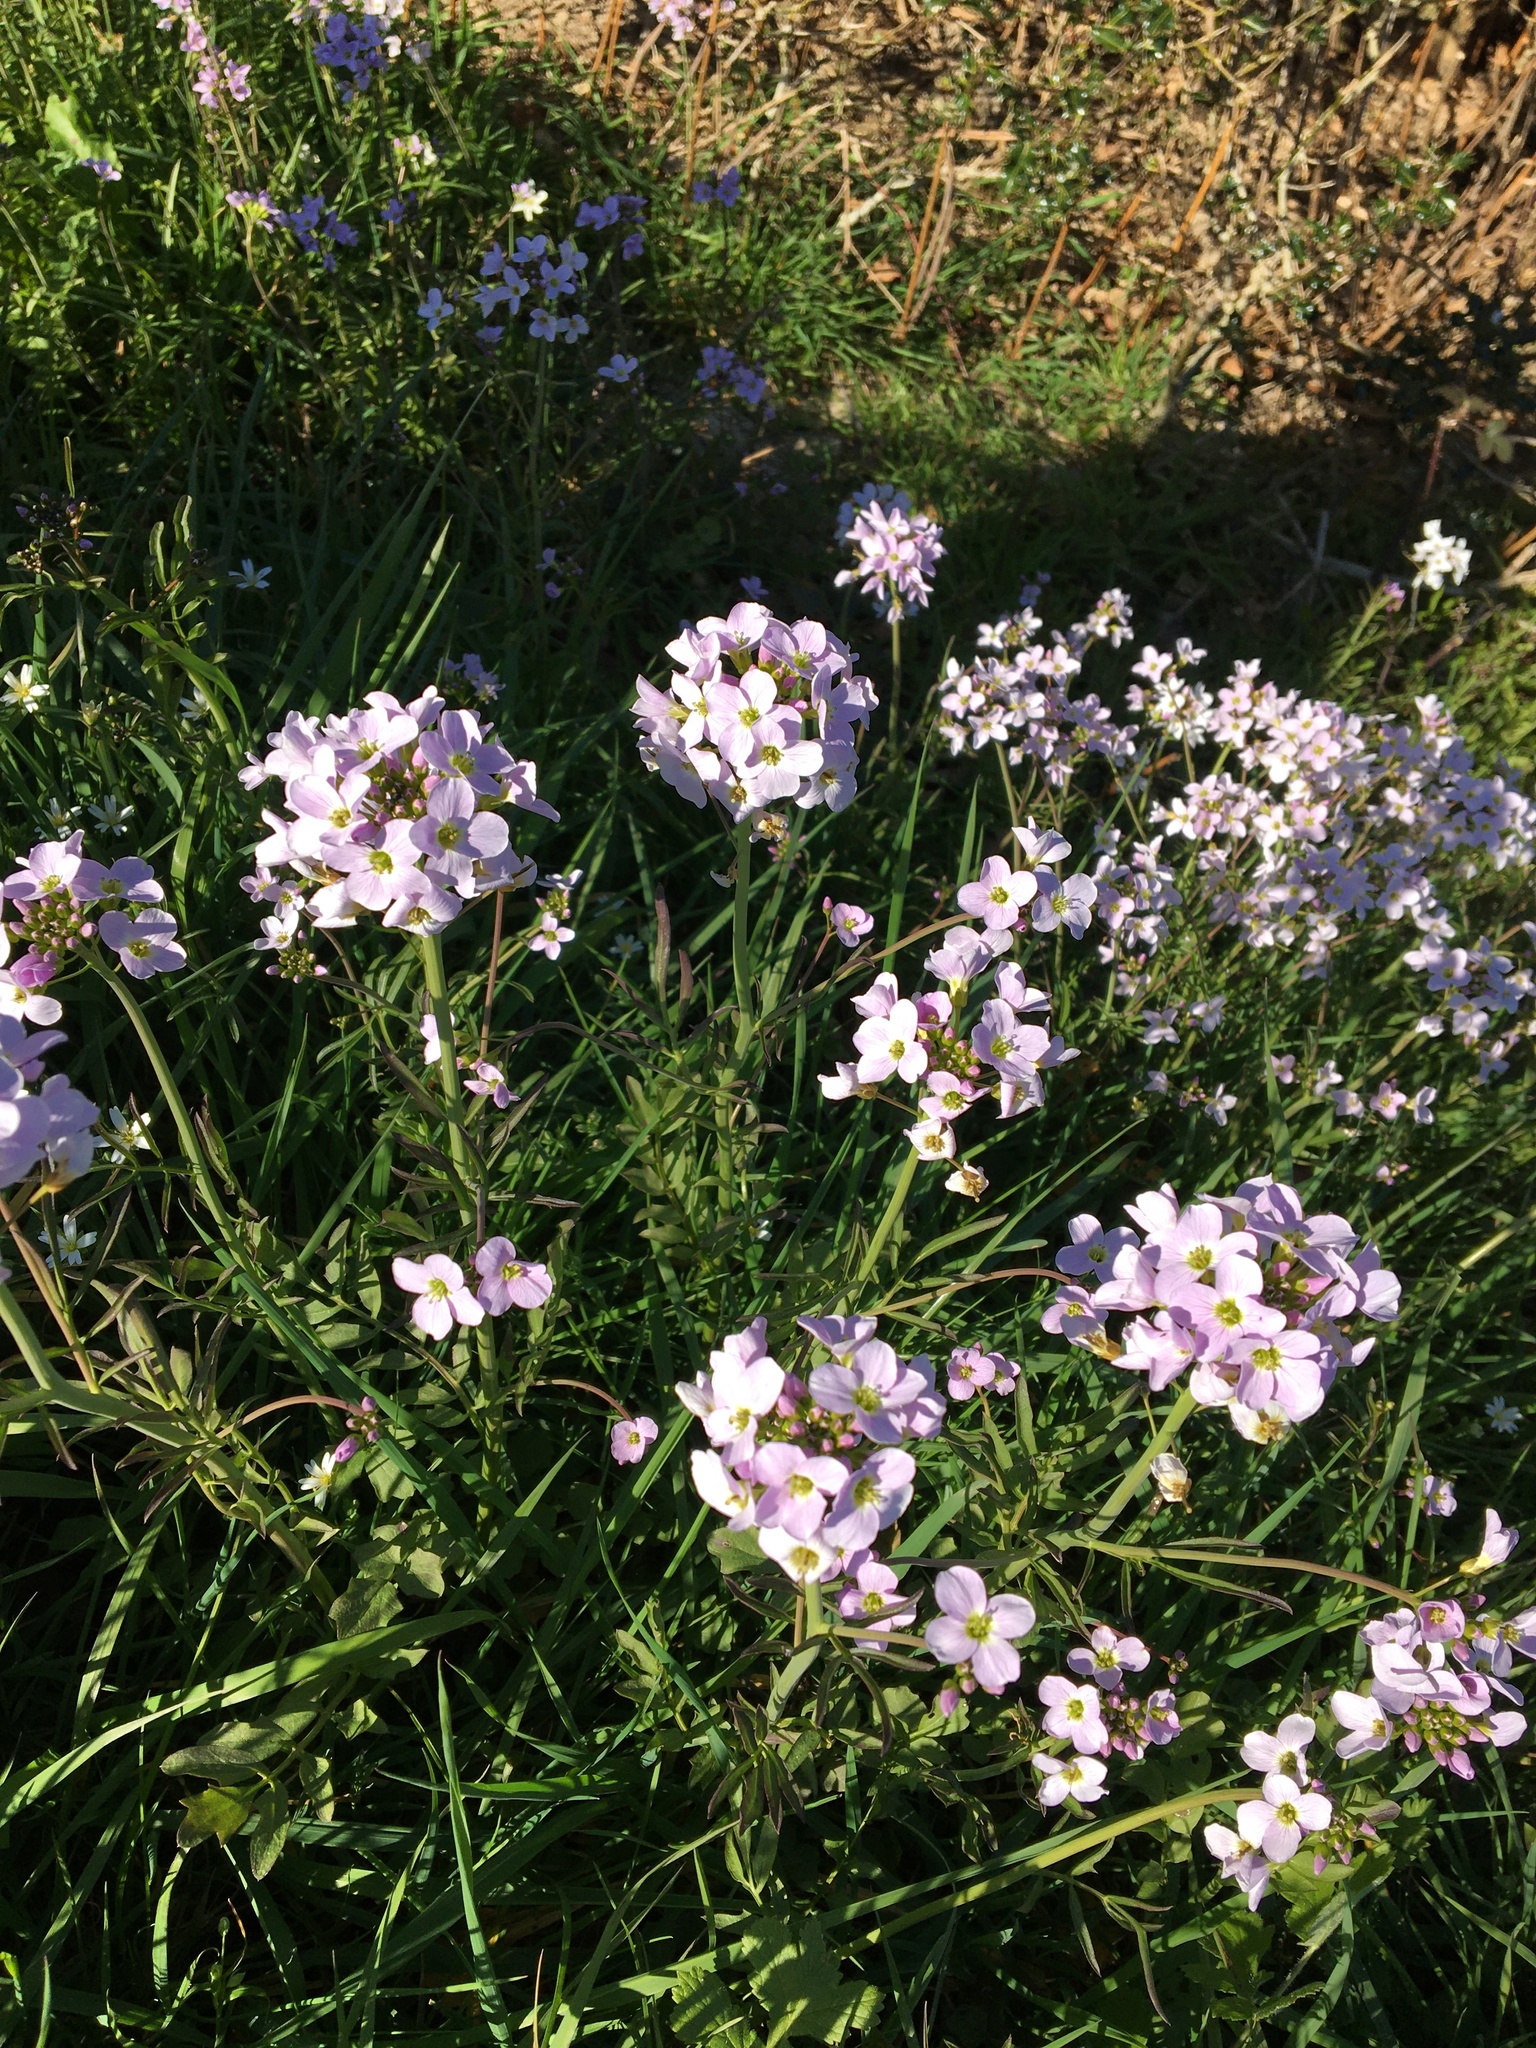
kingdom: Plantae
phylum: Tracheophyta
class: Magnoliopsida
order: Brassicales
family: Brassicaceae
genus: Cardamine
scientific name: Cardamine pratensis
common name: Cuckoo flower
